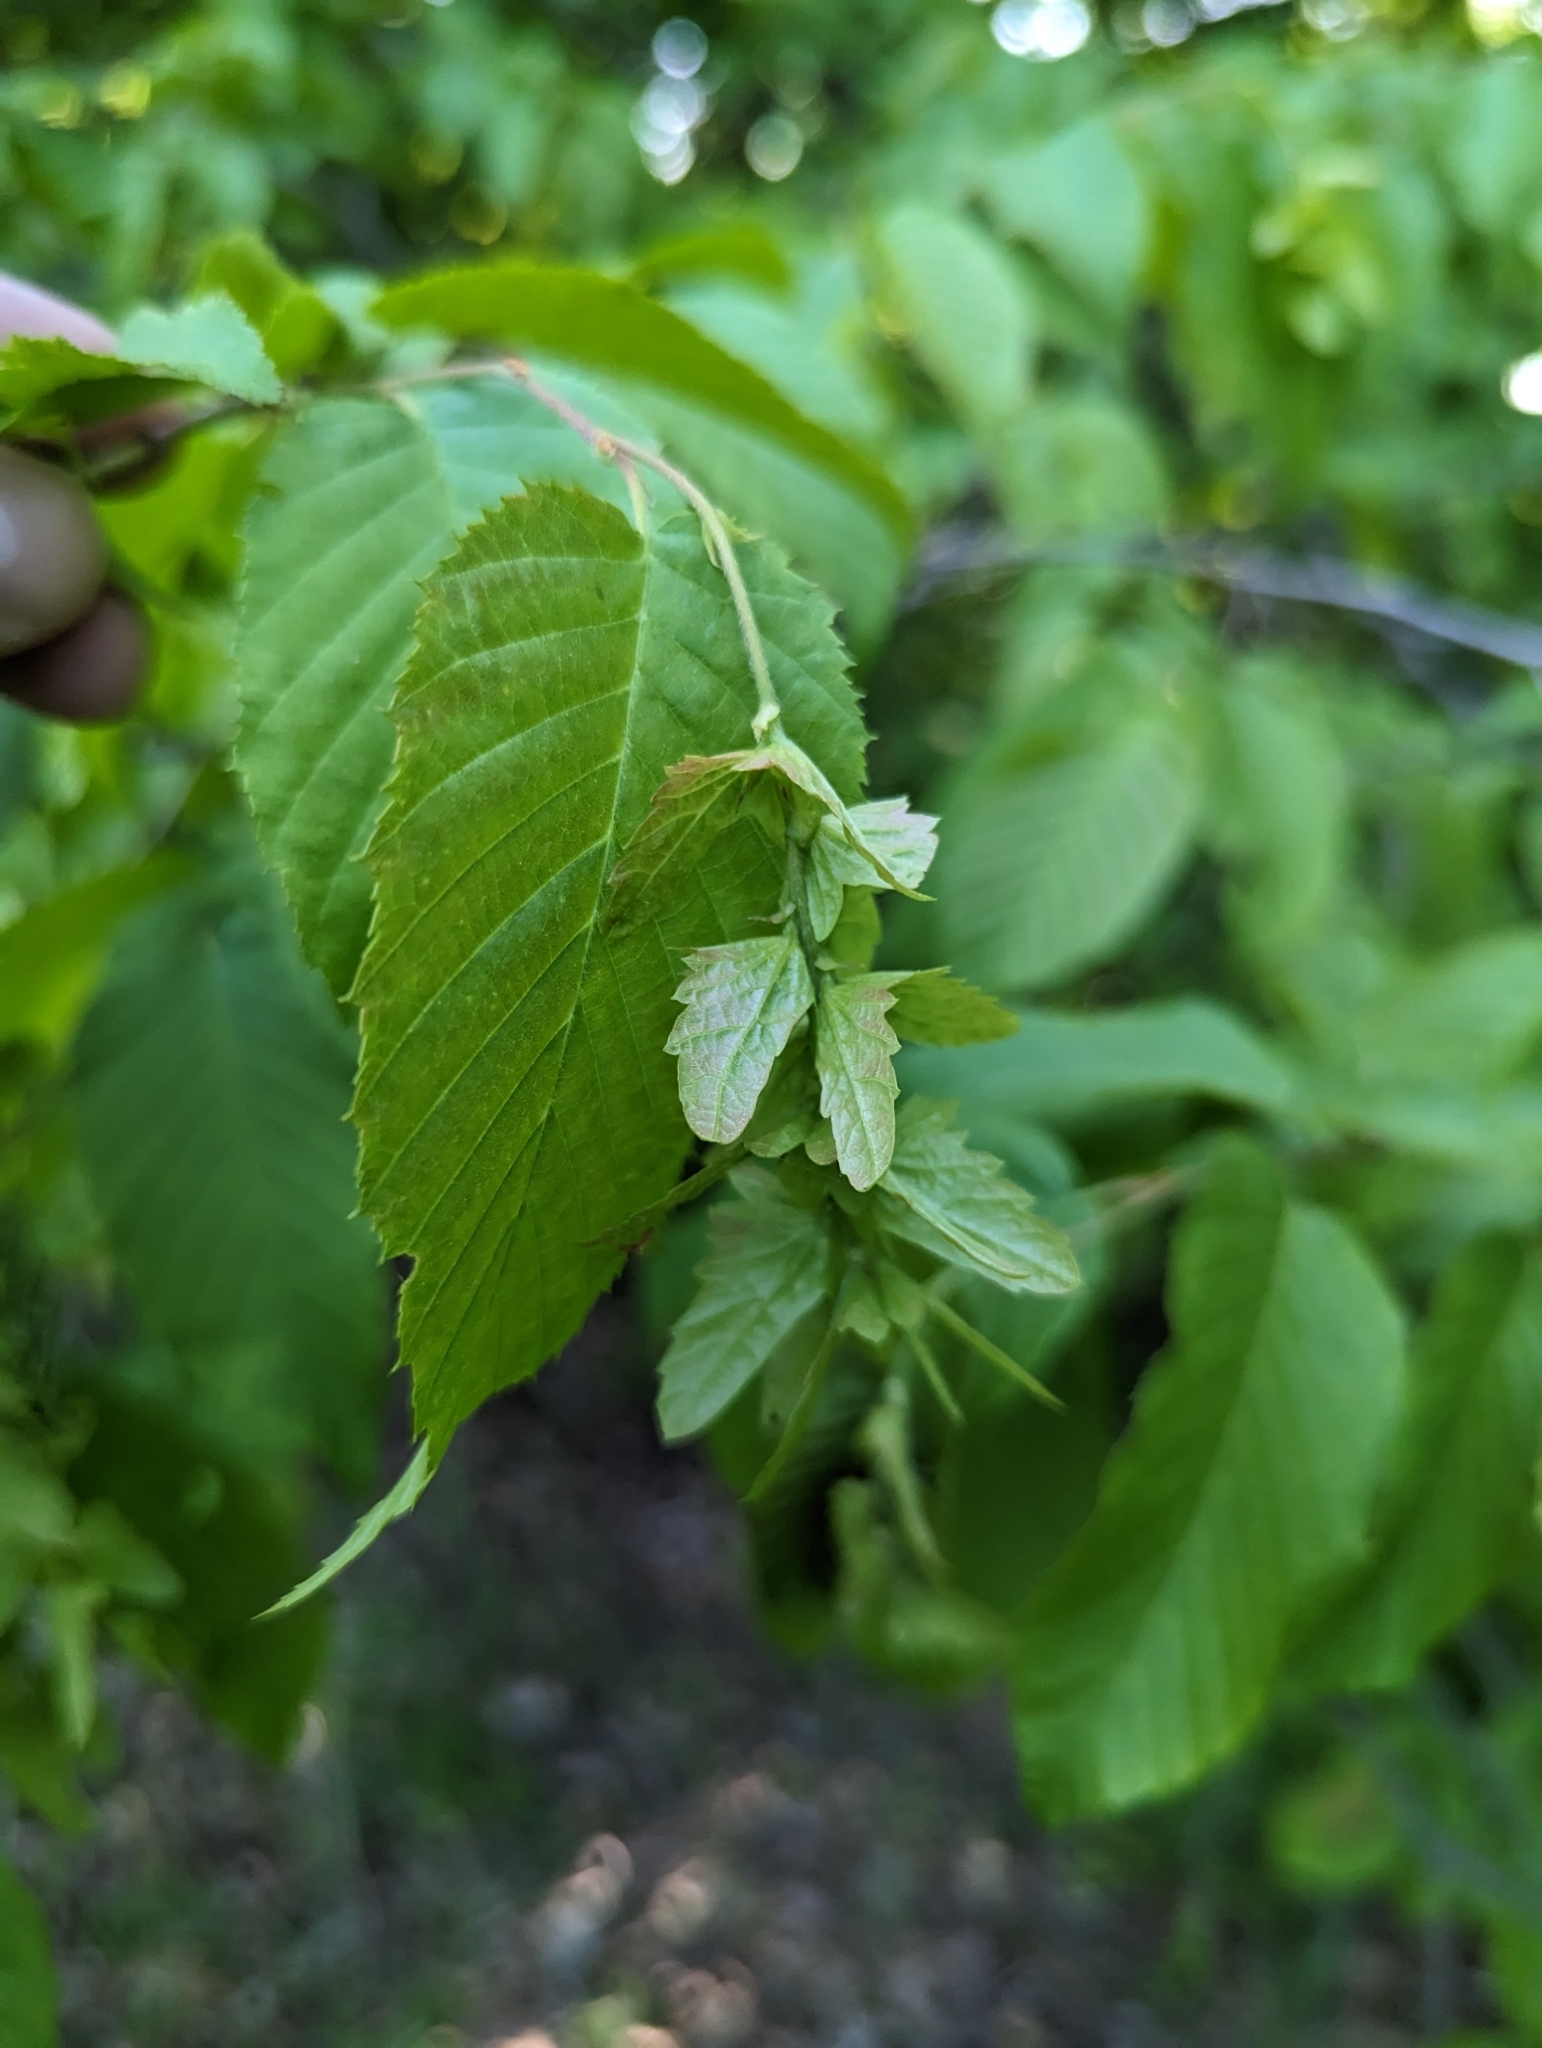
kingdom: Plantae
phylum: Tracheophyta
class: Magnoliopsida
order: Fagales
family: Betulaceae
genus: Carpinus
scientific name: Carpinus caroliniana
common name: American hornbeam
